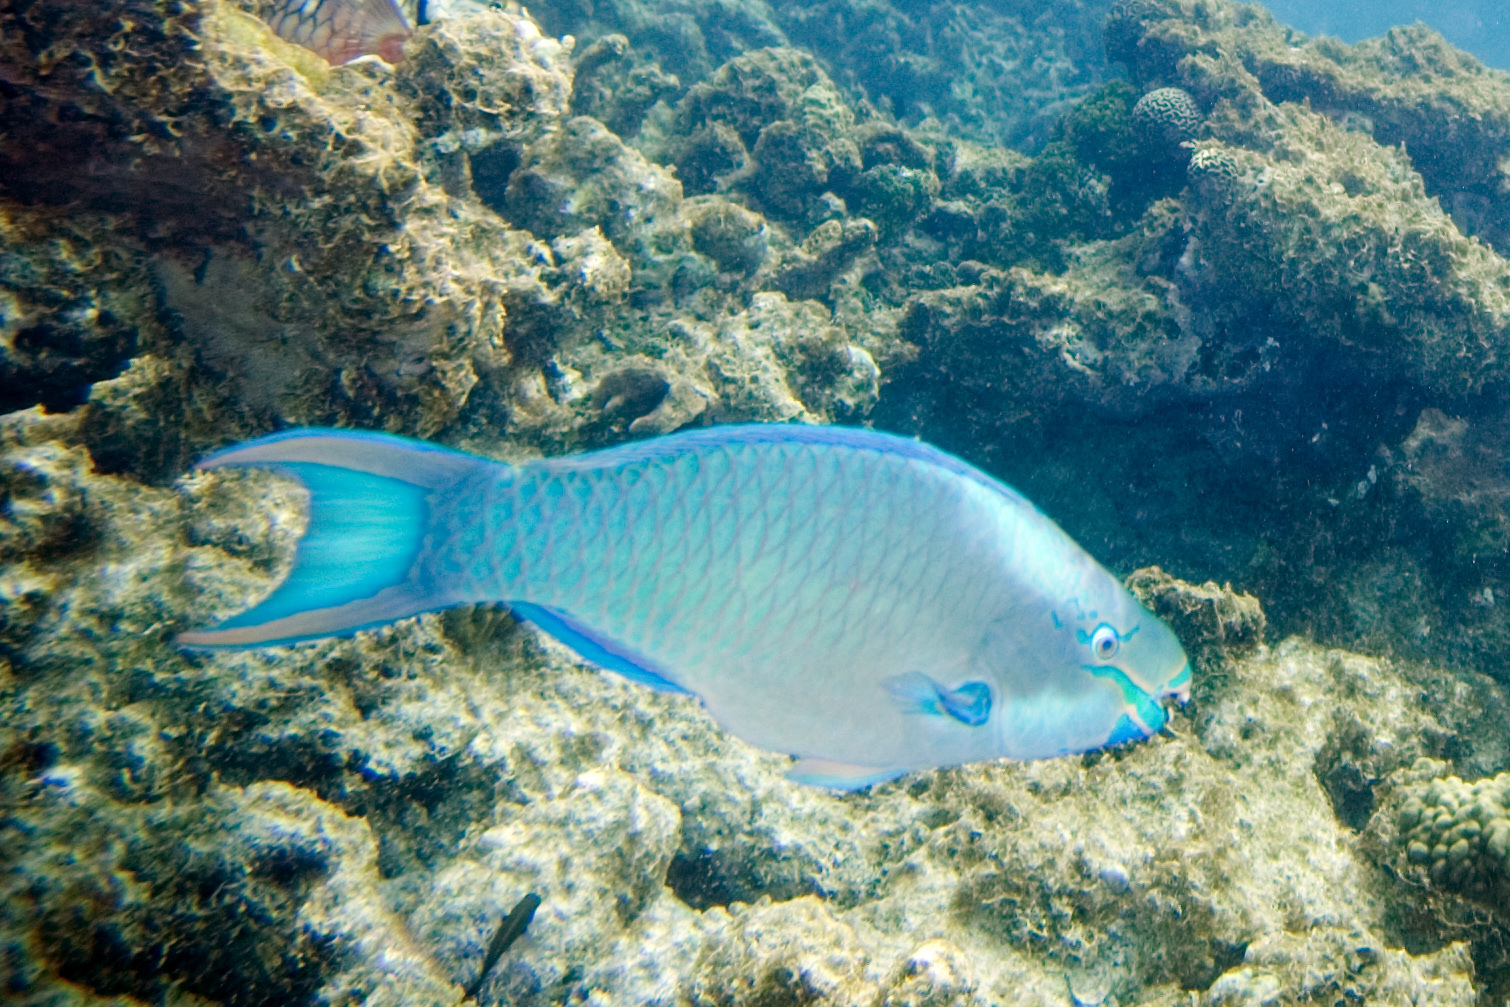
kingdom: Animalia
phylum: Chordata
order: Perciformes
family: Scaridae
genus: Scarus
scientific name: Scarus vetula
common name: Queen parrotfish
